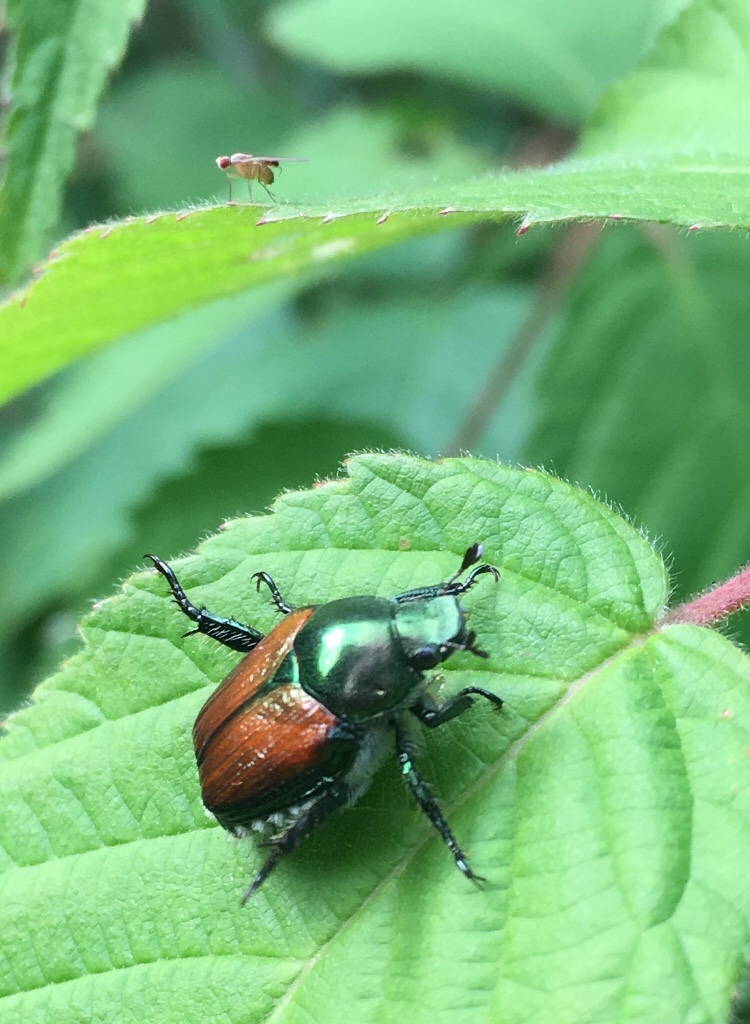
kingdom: Animalia
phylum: Arthropoda
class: Insecta
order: Coleoptera
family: Scarabaeidae
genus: Popillia
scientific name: Popillia japonica
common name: Japanese beetle
